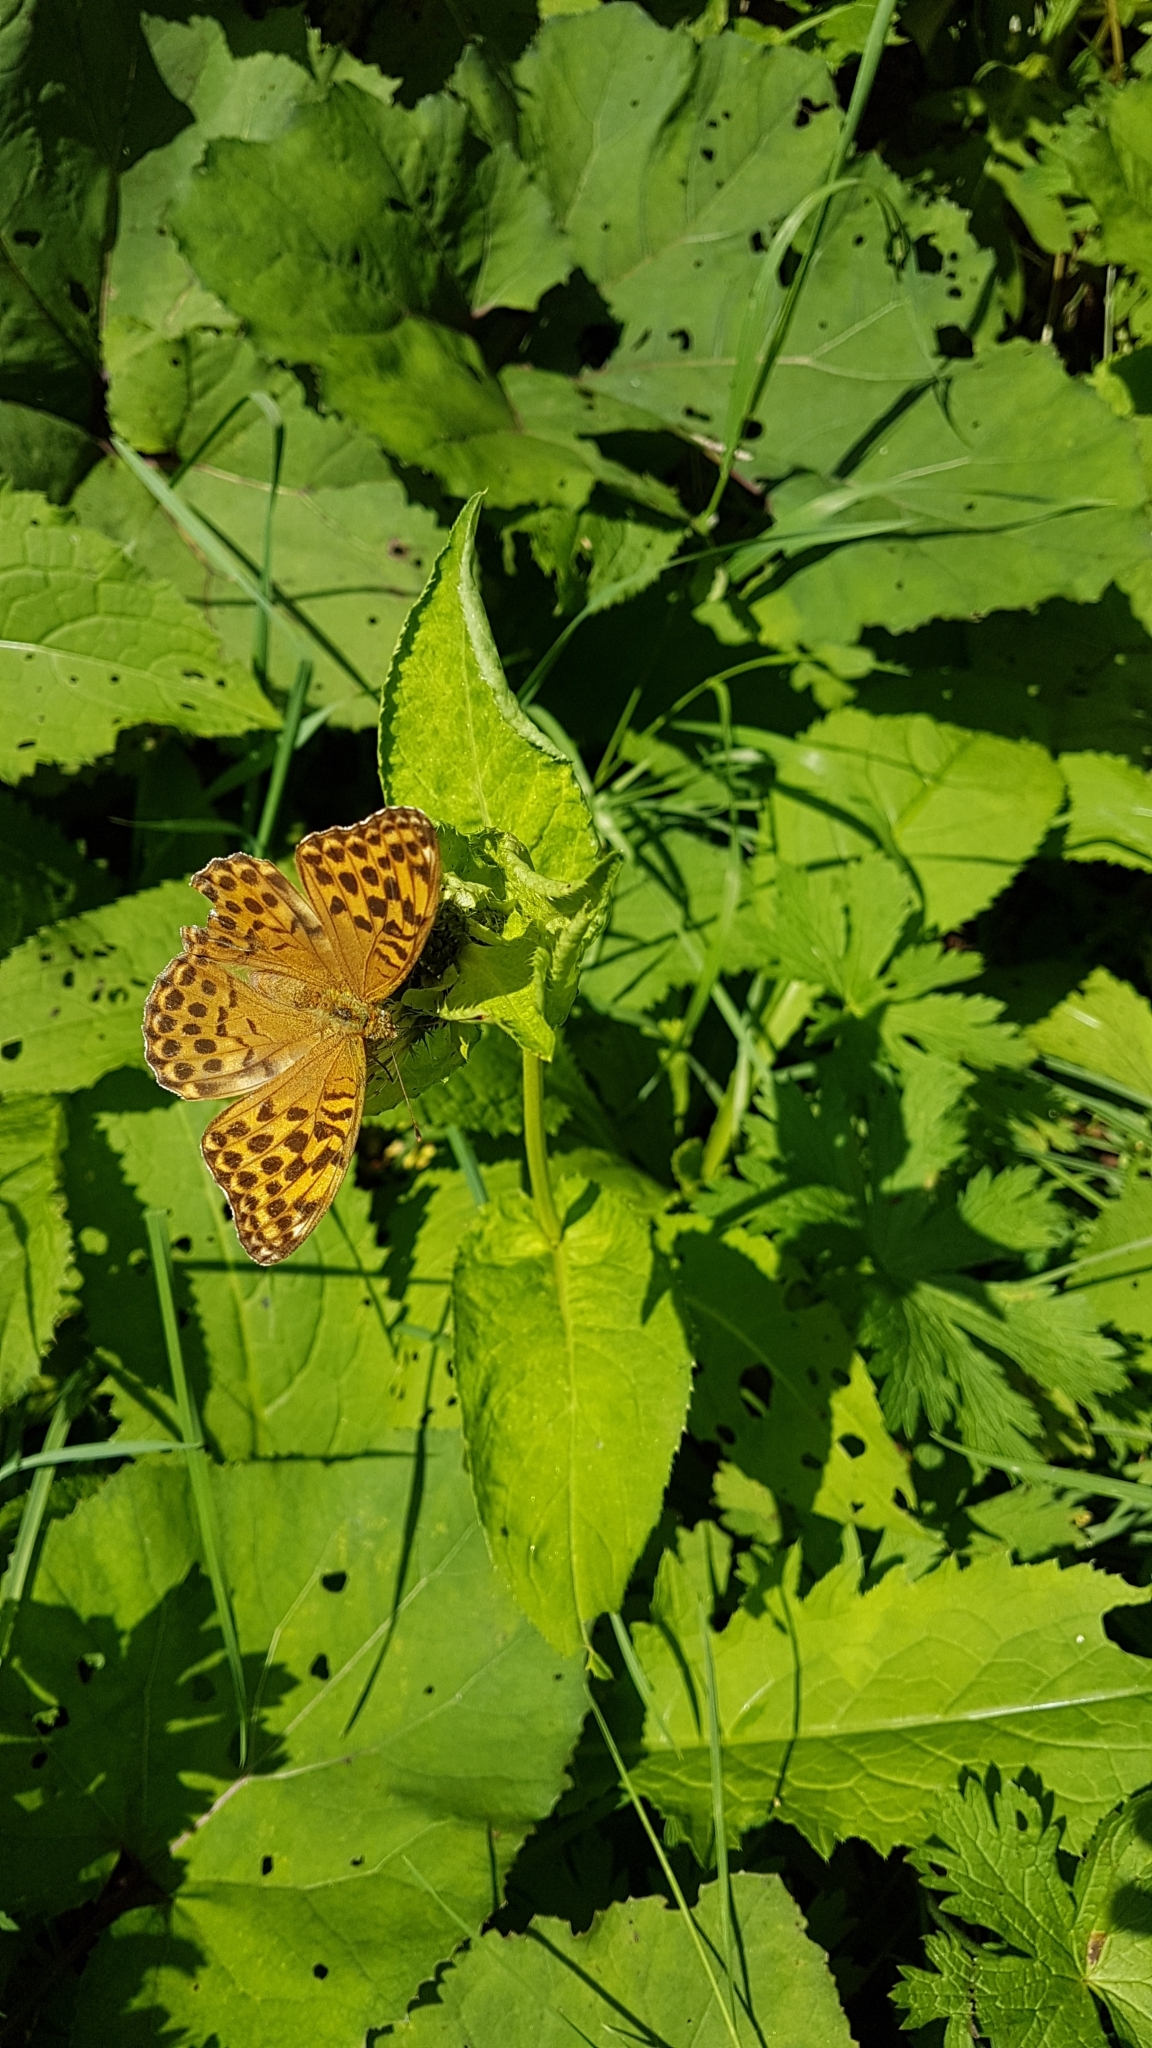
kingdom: Animalia
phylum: Arthropoda
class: Insecta
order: Lepidoptera
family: Nymphalidae
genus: Argynnis
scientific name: Argynnis paphia
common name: Silver-washed fritillary
